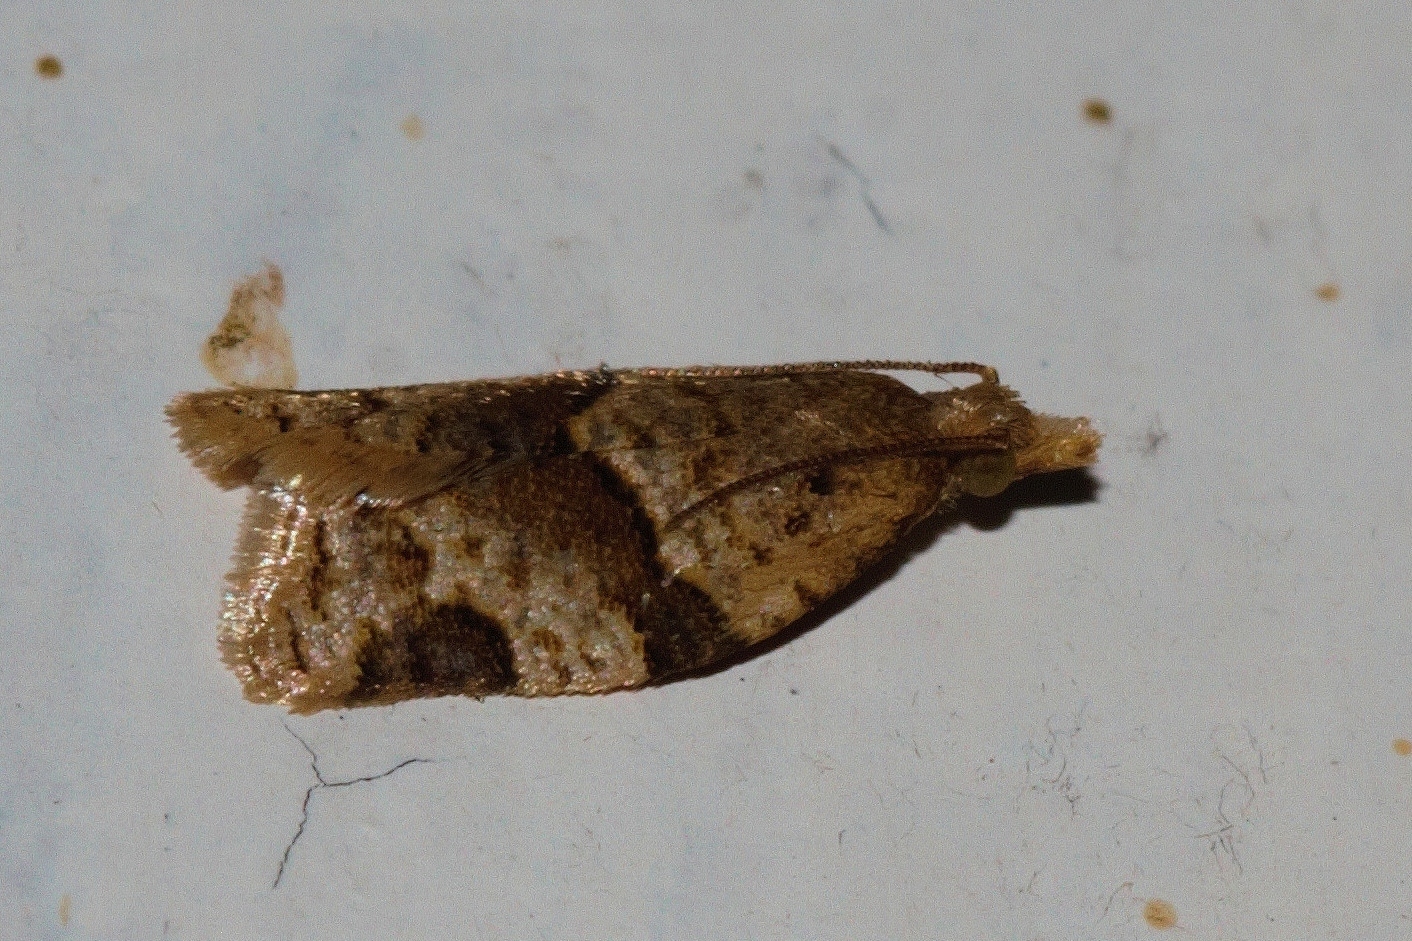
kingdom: Animalia
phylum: Arthropoda
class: Insecta
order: Lepidoptera
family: Tortricidae
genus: Metamesia
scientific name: Metamesia elegans
